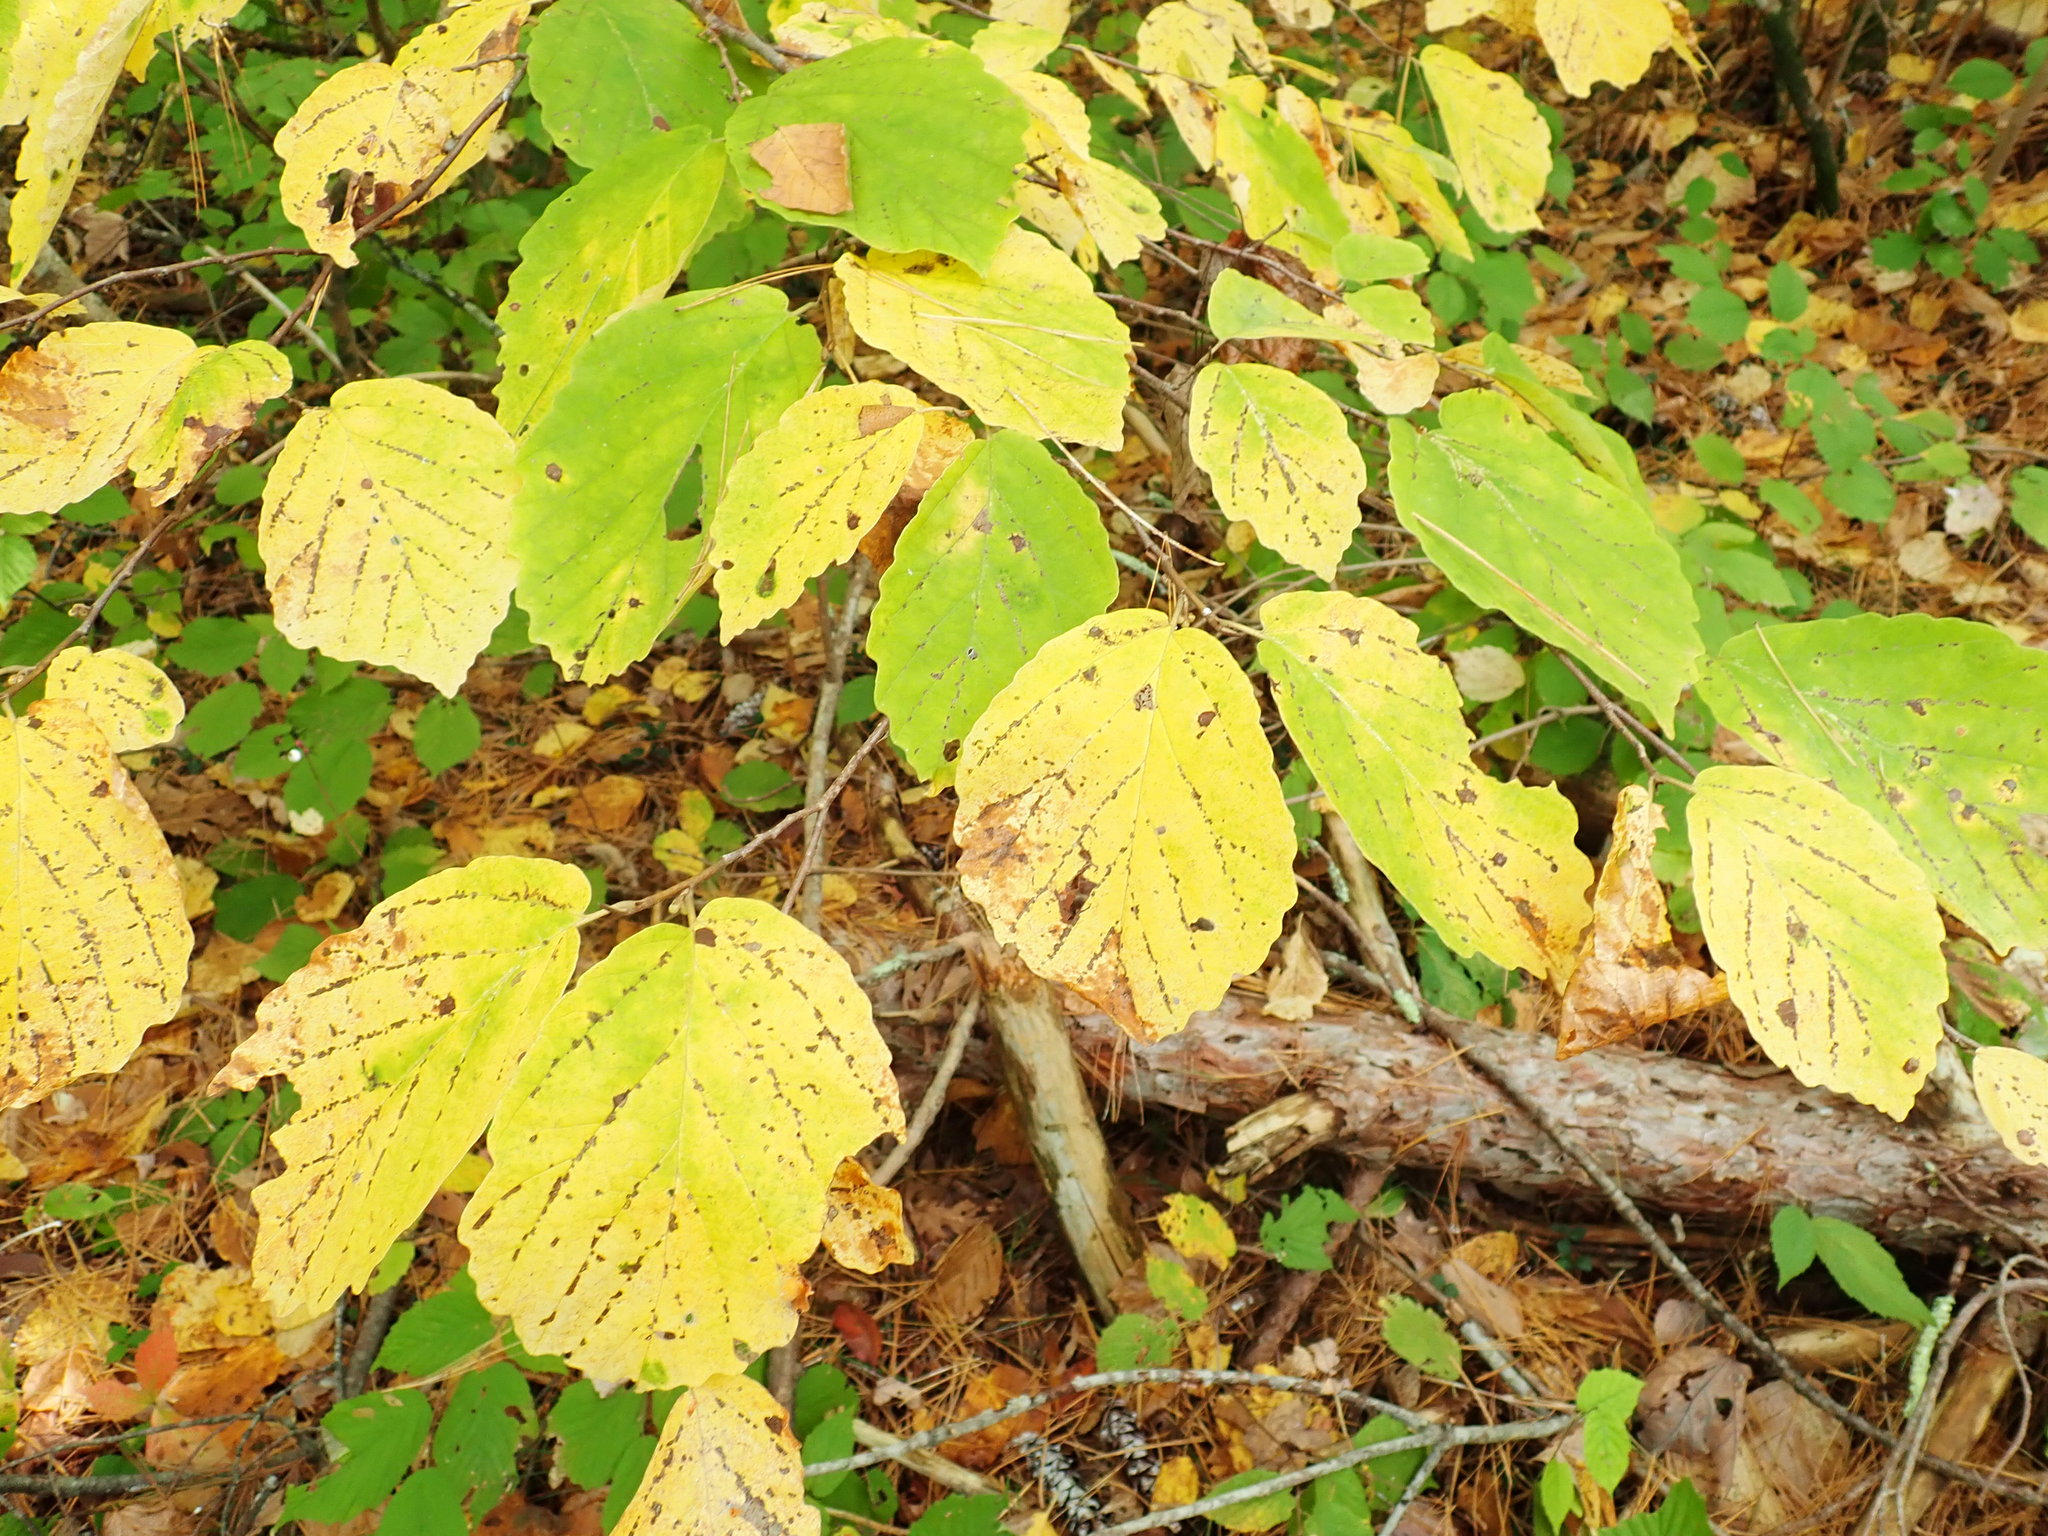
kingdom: Plantae
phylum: Tracheophyta
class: Magnoliopsida
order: Saxifragales
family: Hamamelidaceae
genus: Hamamelis
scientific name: Hamamelis virginiana
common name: Witch-hazel
